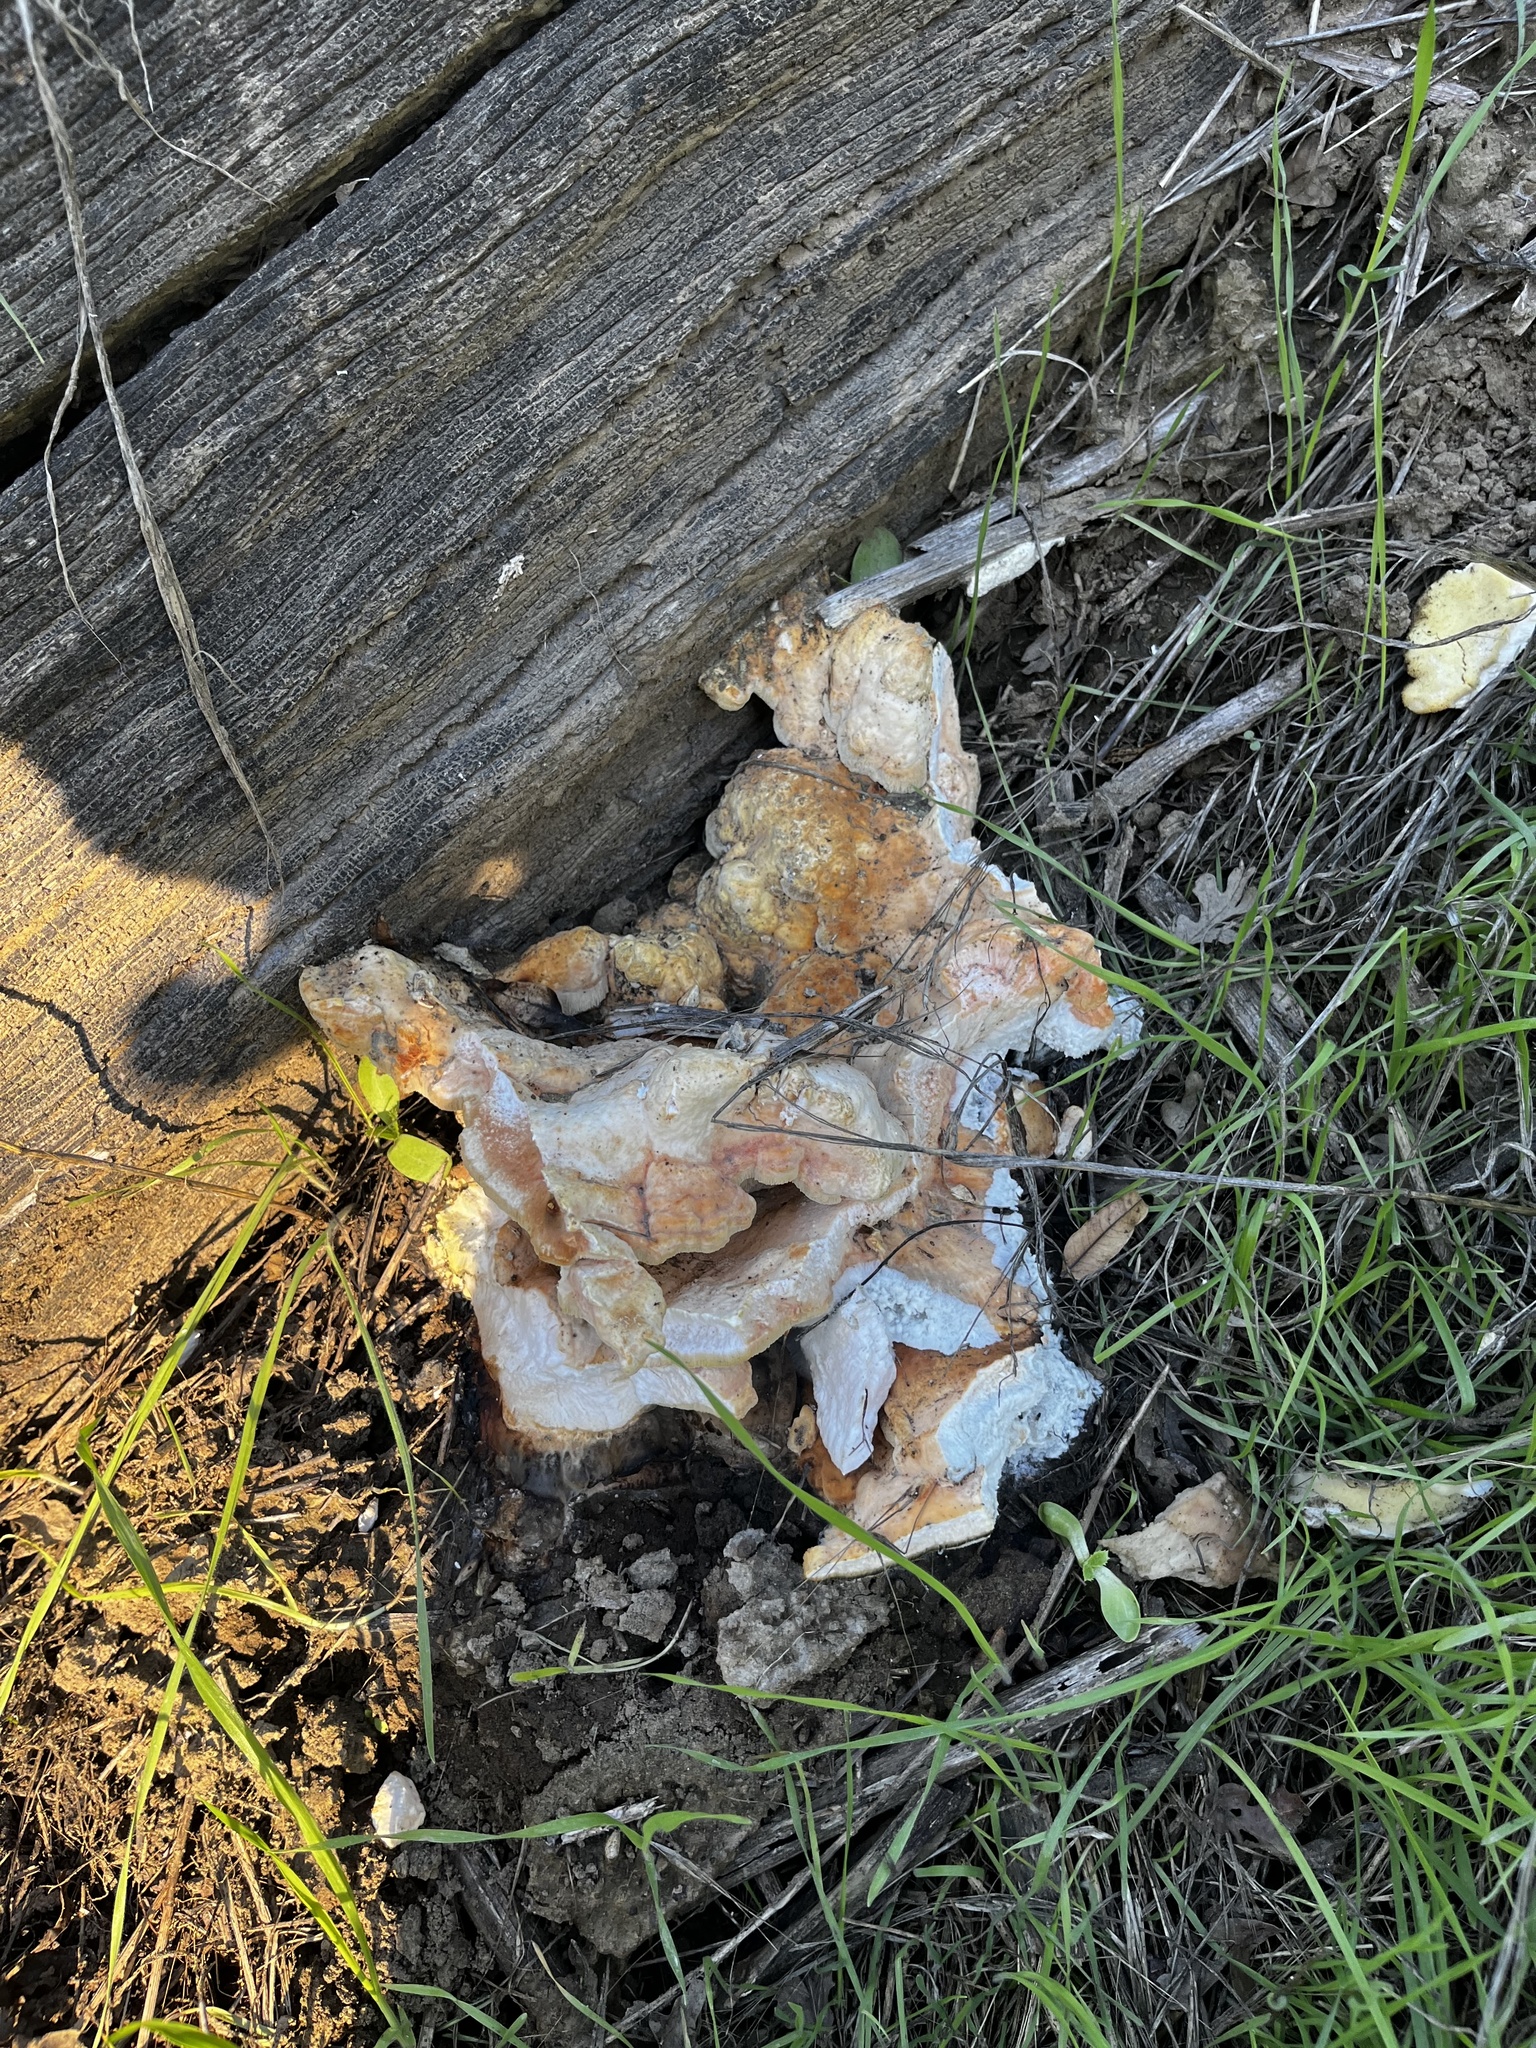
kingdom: Fungi
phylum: Basidiomycota
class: Agaricomycetes
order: Polyporales
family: Laetiporaceae
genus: Laetiporus
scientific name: Laetiporus gilbertsonii
